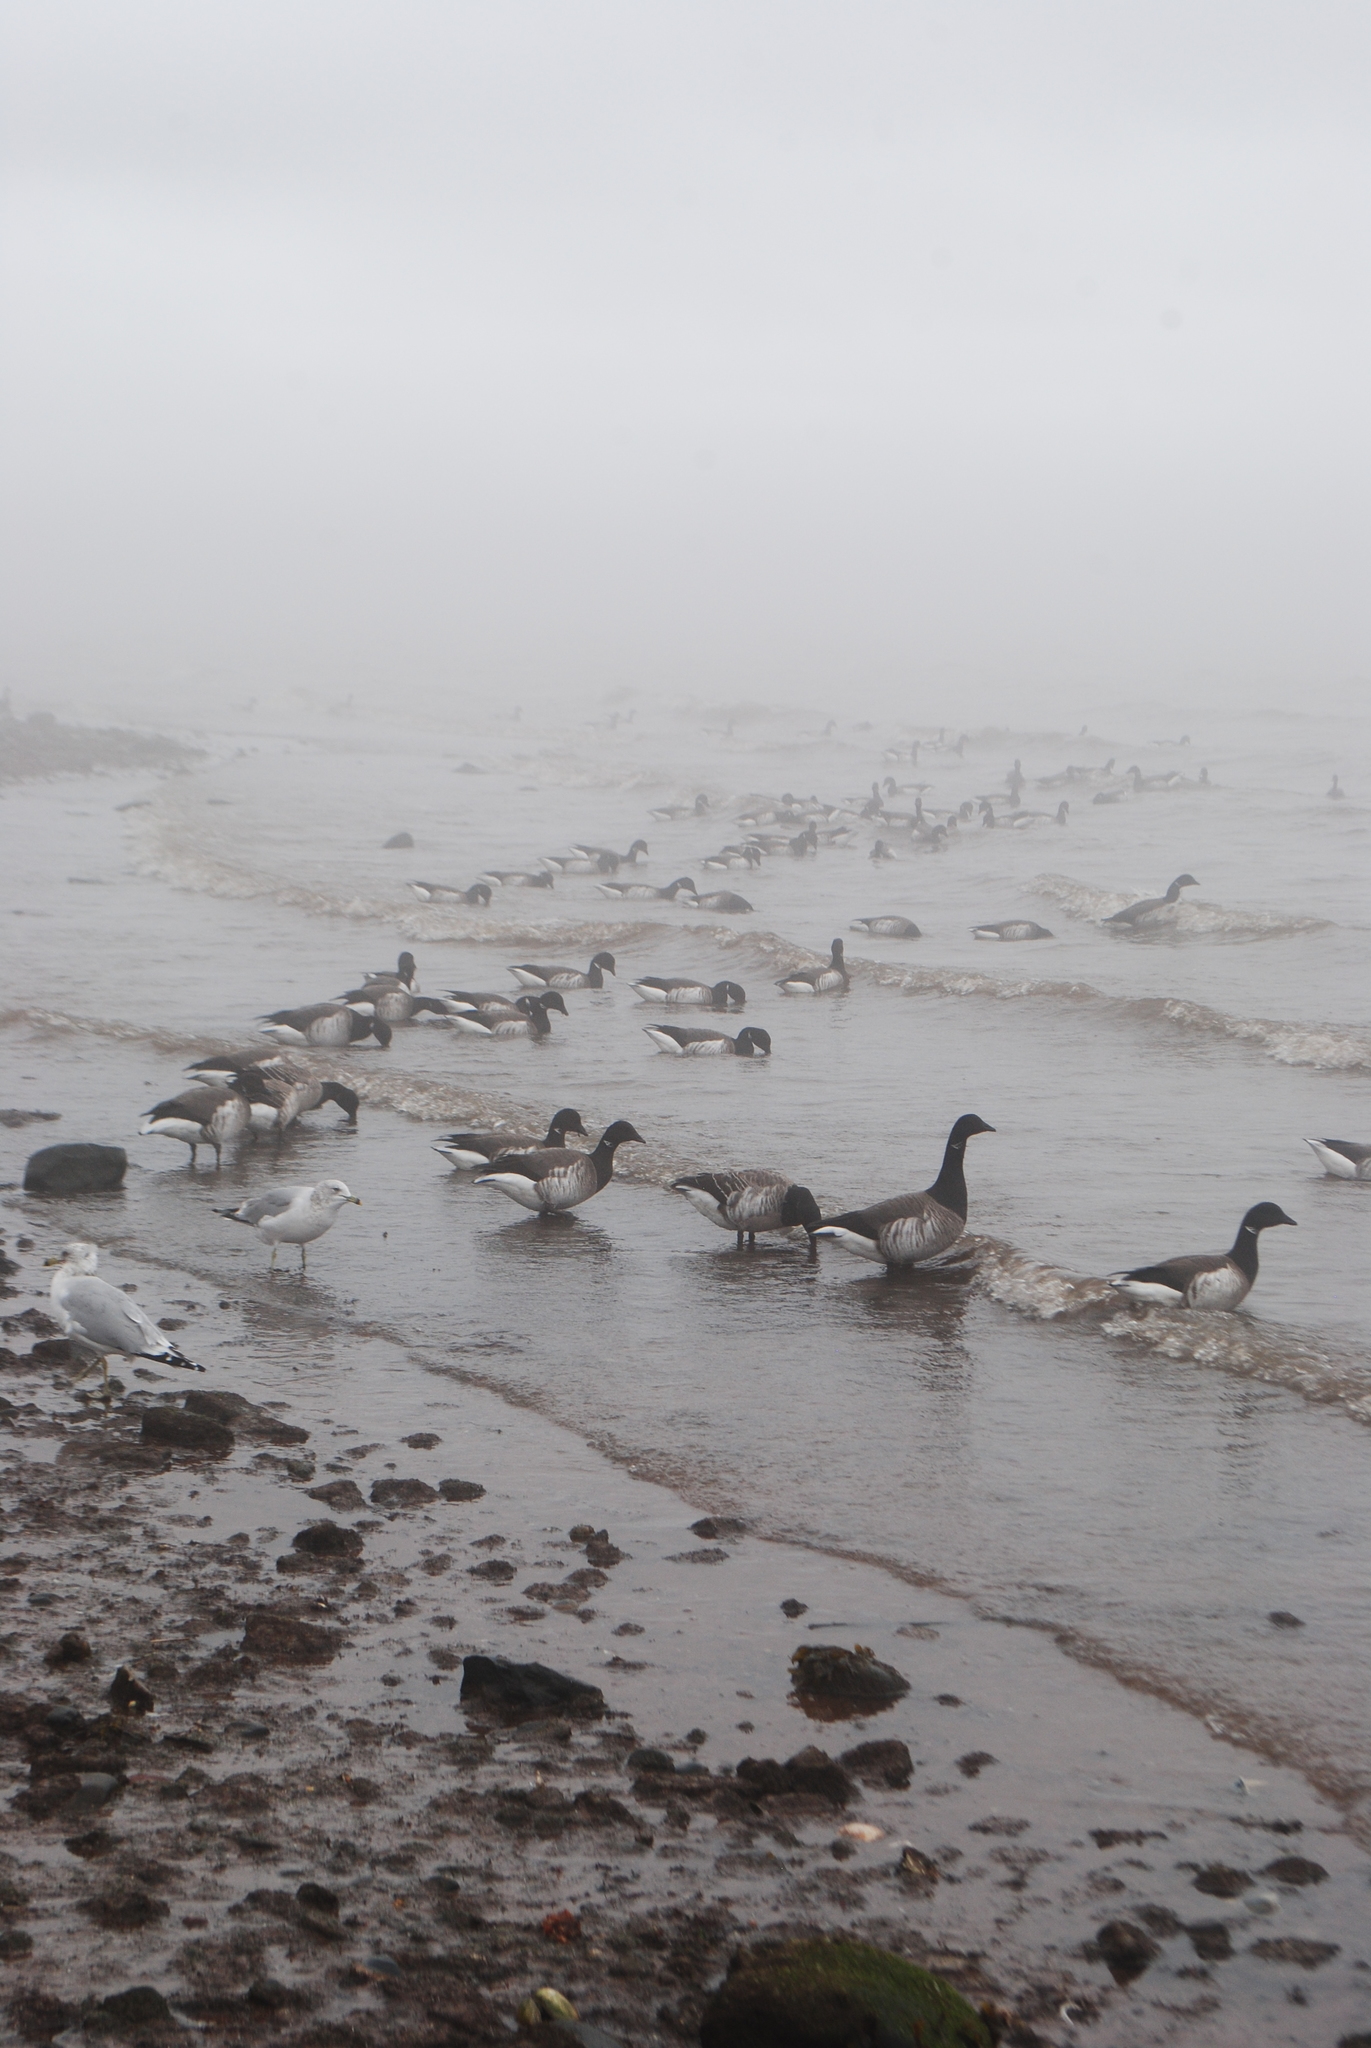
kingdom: Animalia
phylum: Chordata
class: Aves
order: Anseriformes
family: Anatidae
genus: Branta
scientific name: Branta bernicla
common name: Brant goose
